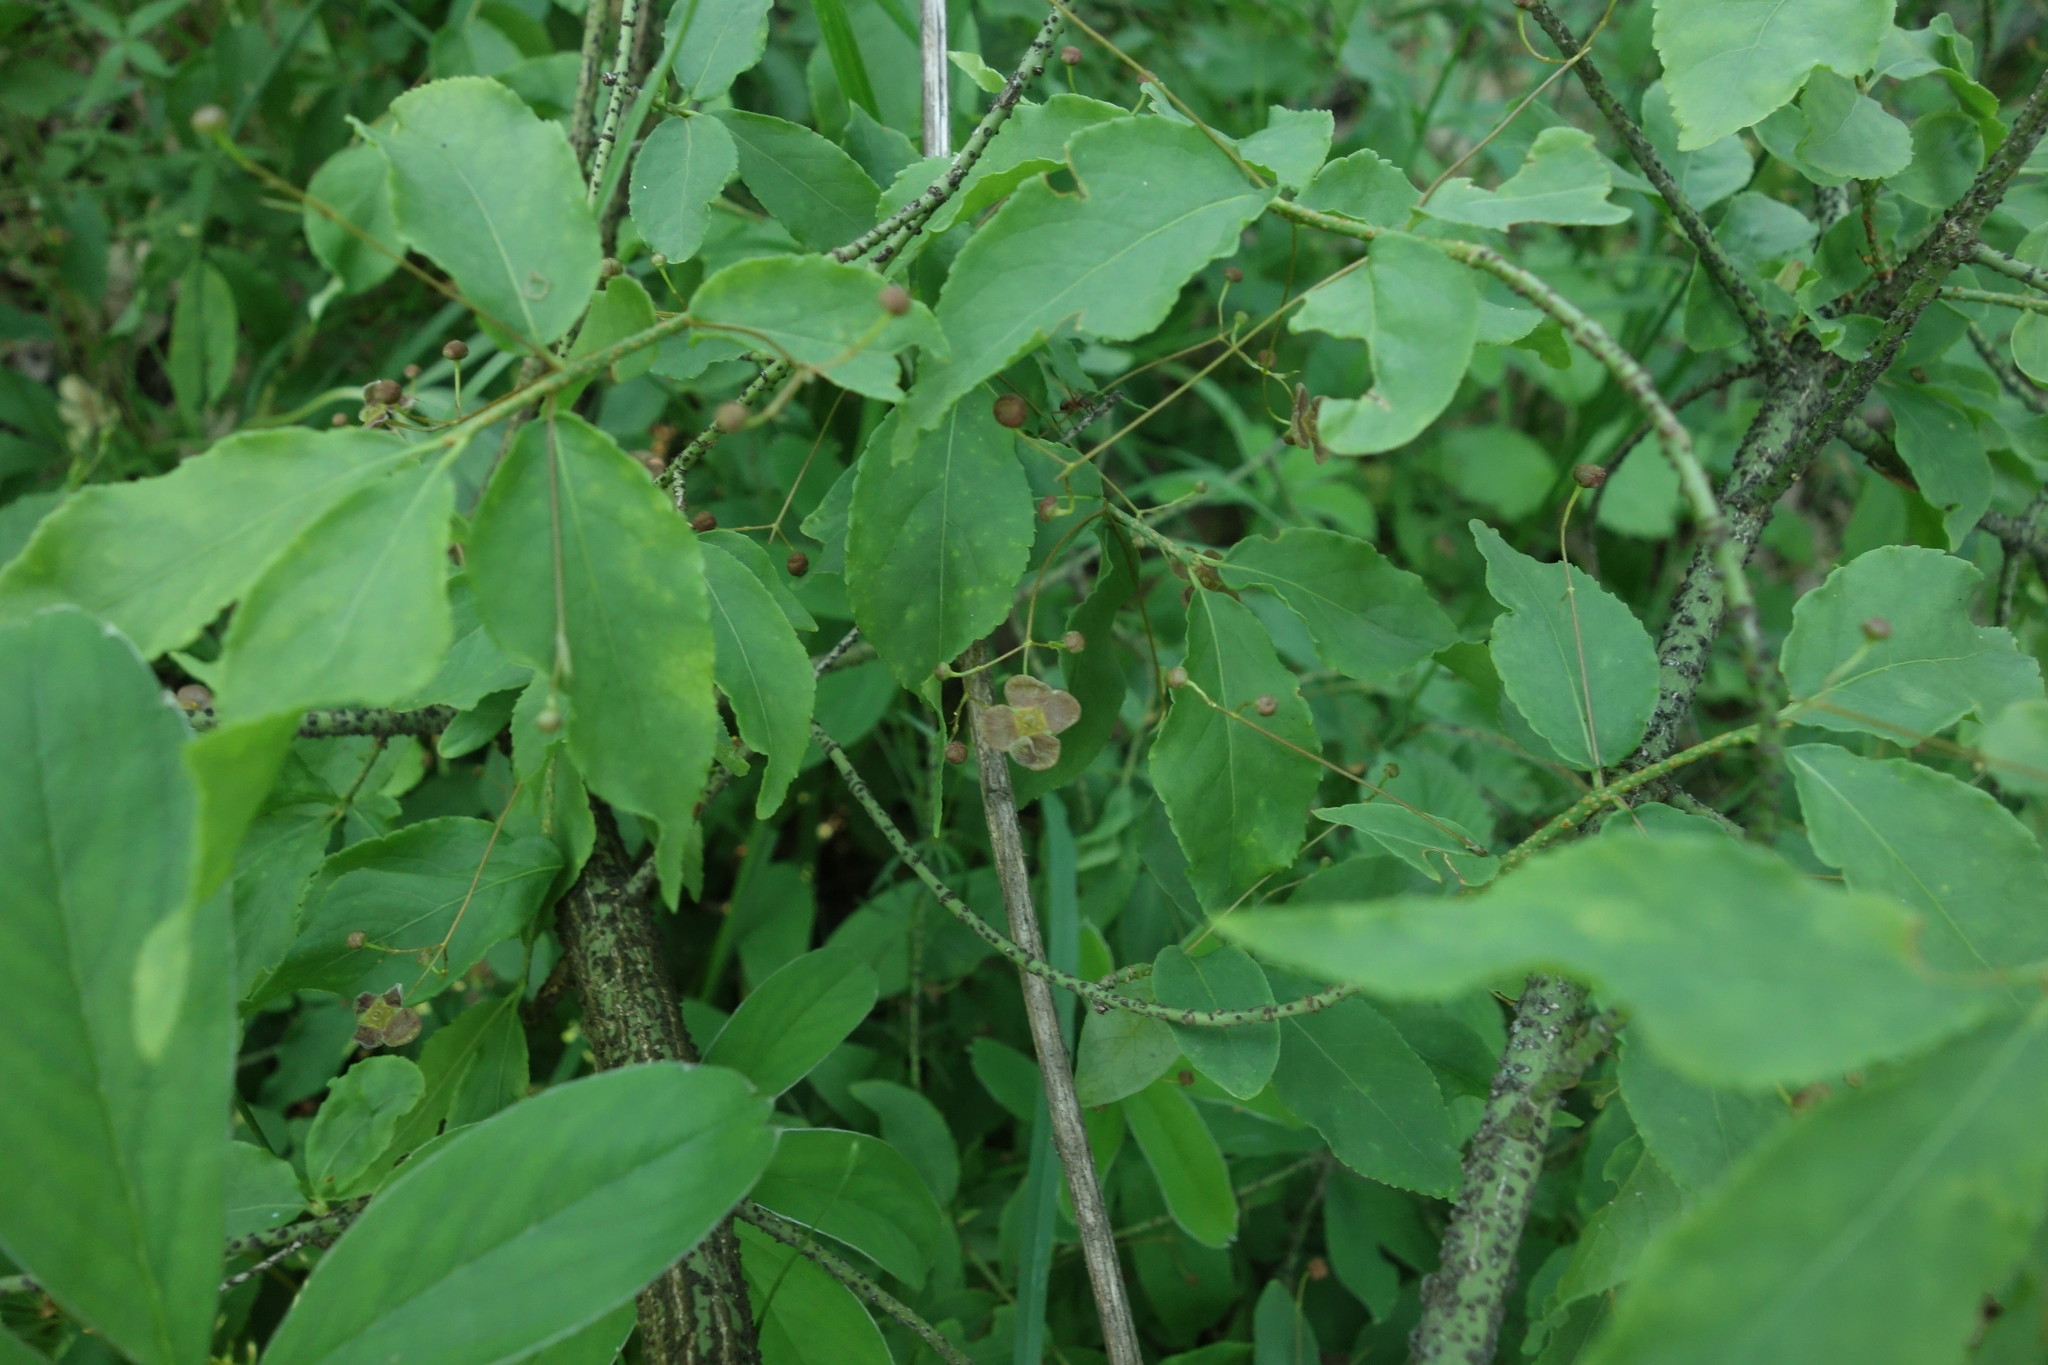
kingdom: Plantae
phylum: Tracheophyta
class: Magnoliopsida
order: Celastrales
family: Celastraceae
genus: Euonymus
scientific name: Euonymus verrucosus
